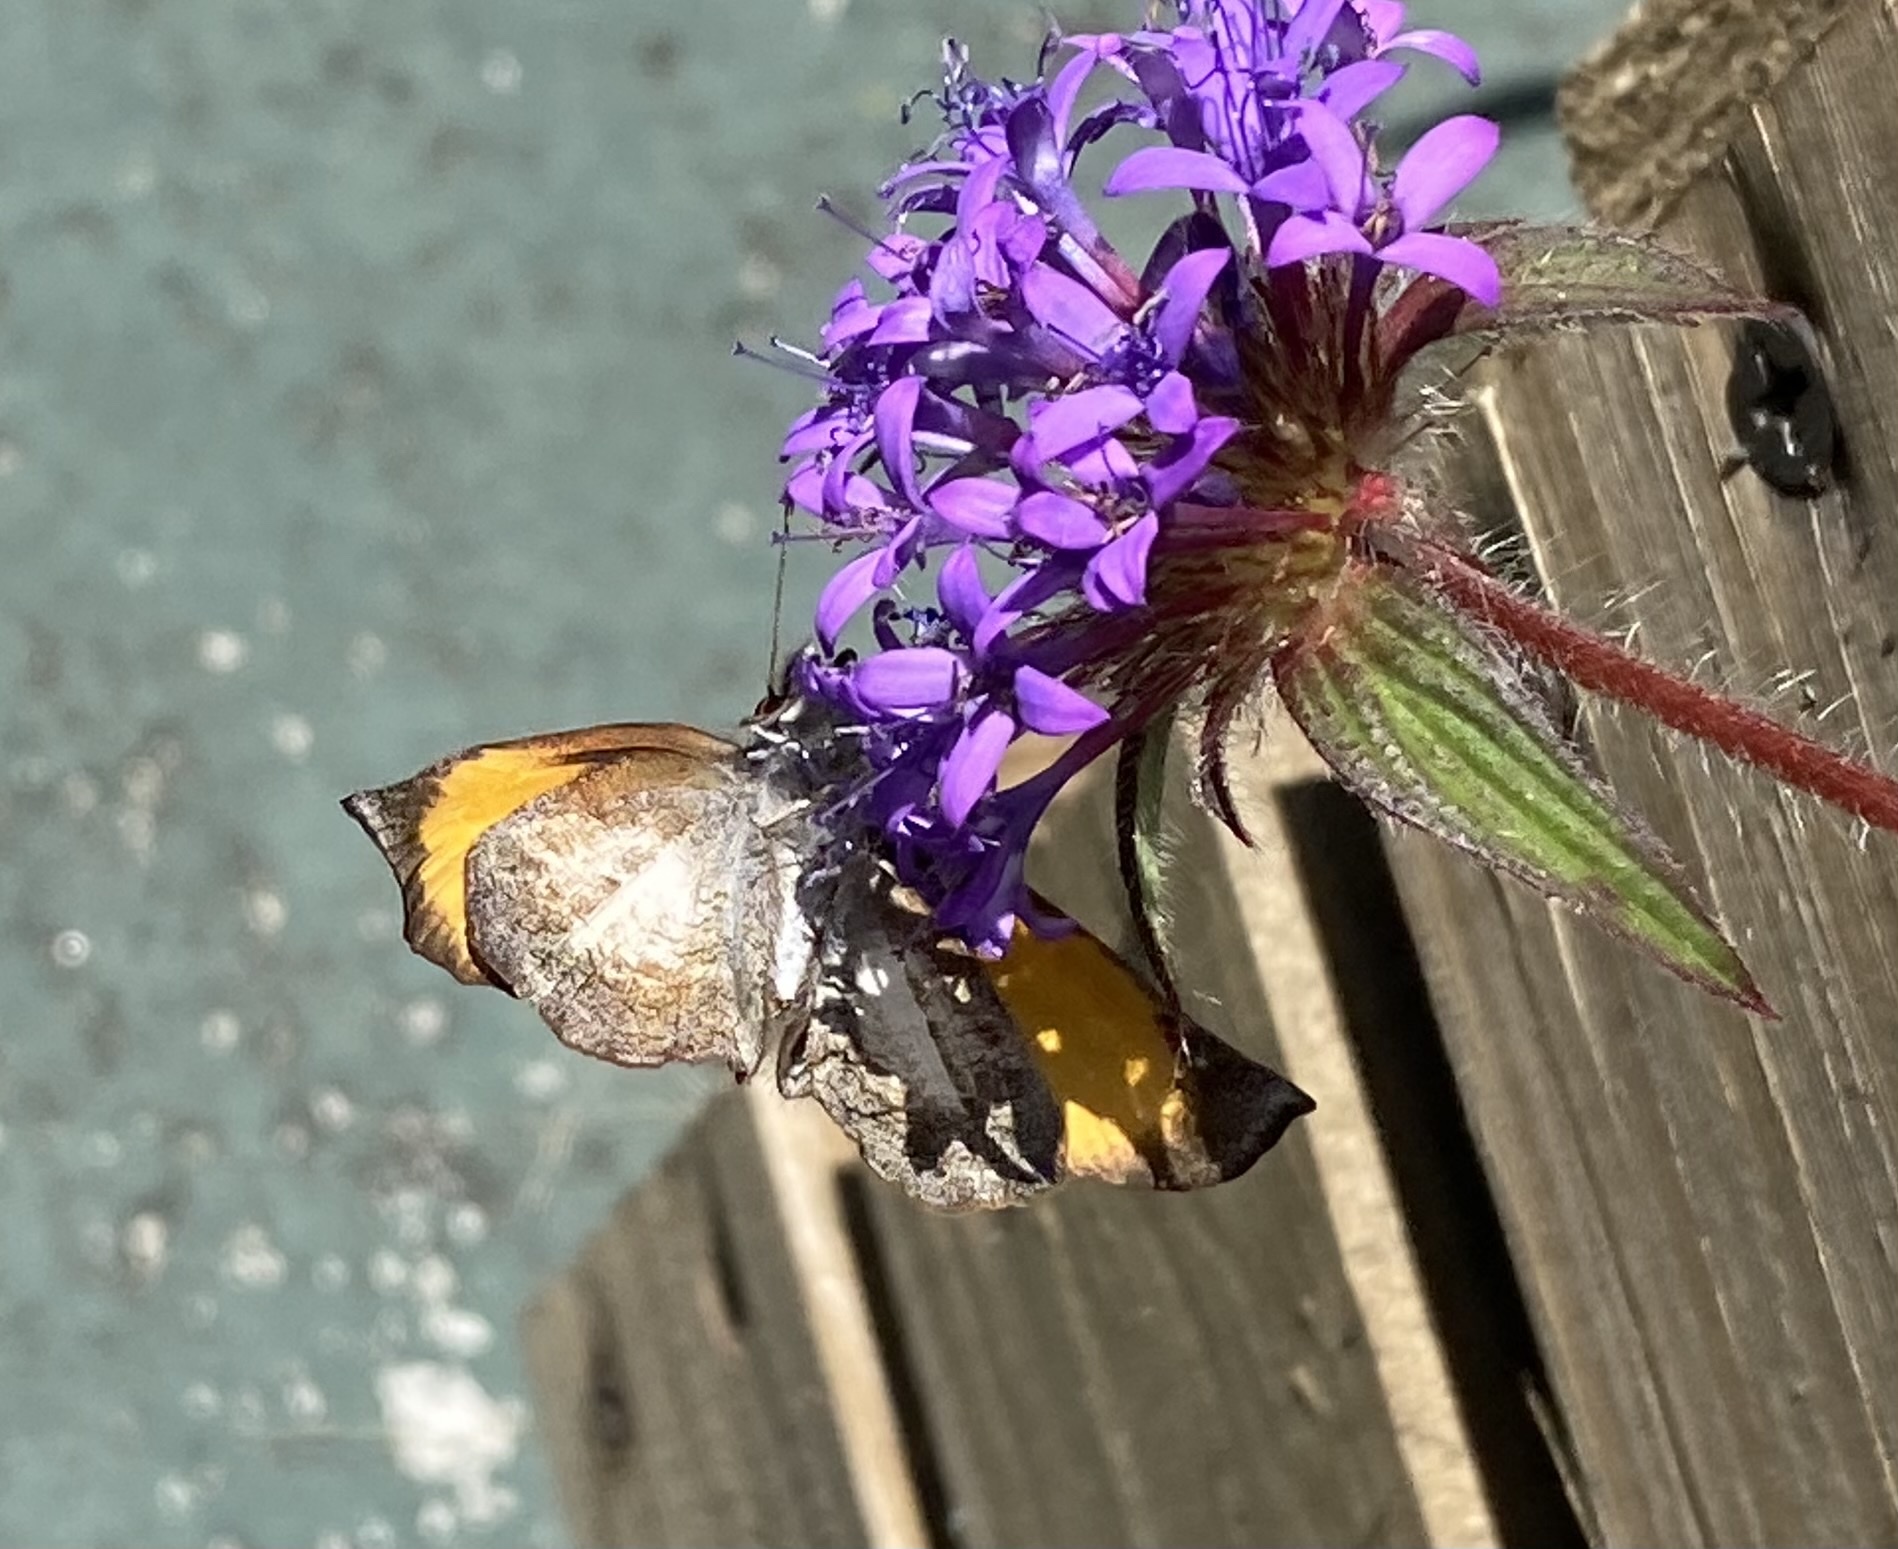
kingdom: Animalia
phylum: Arthropoda
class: Insecta
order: Lepidoptera
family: Hesperiidae
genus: Theagenes
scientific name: Theagenes
